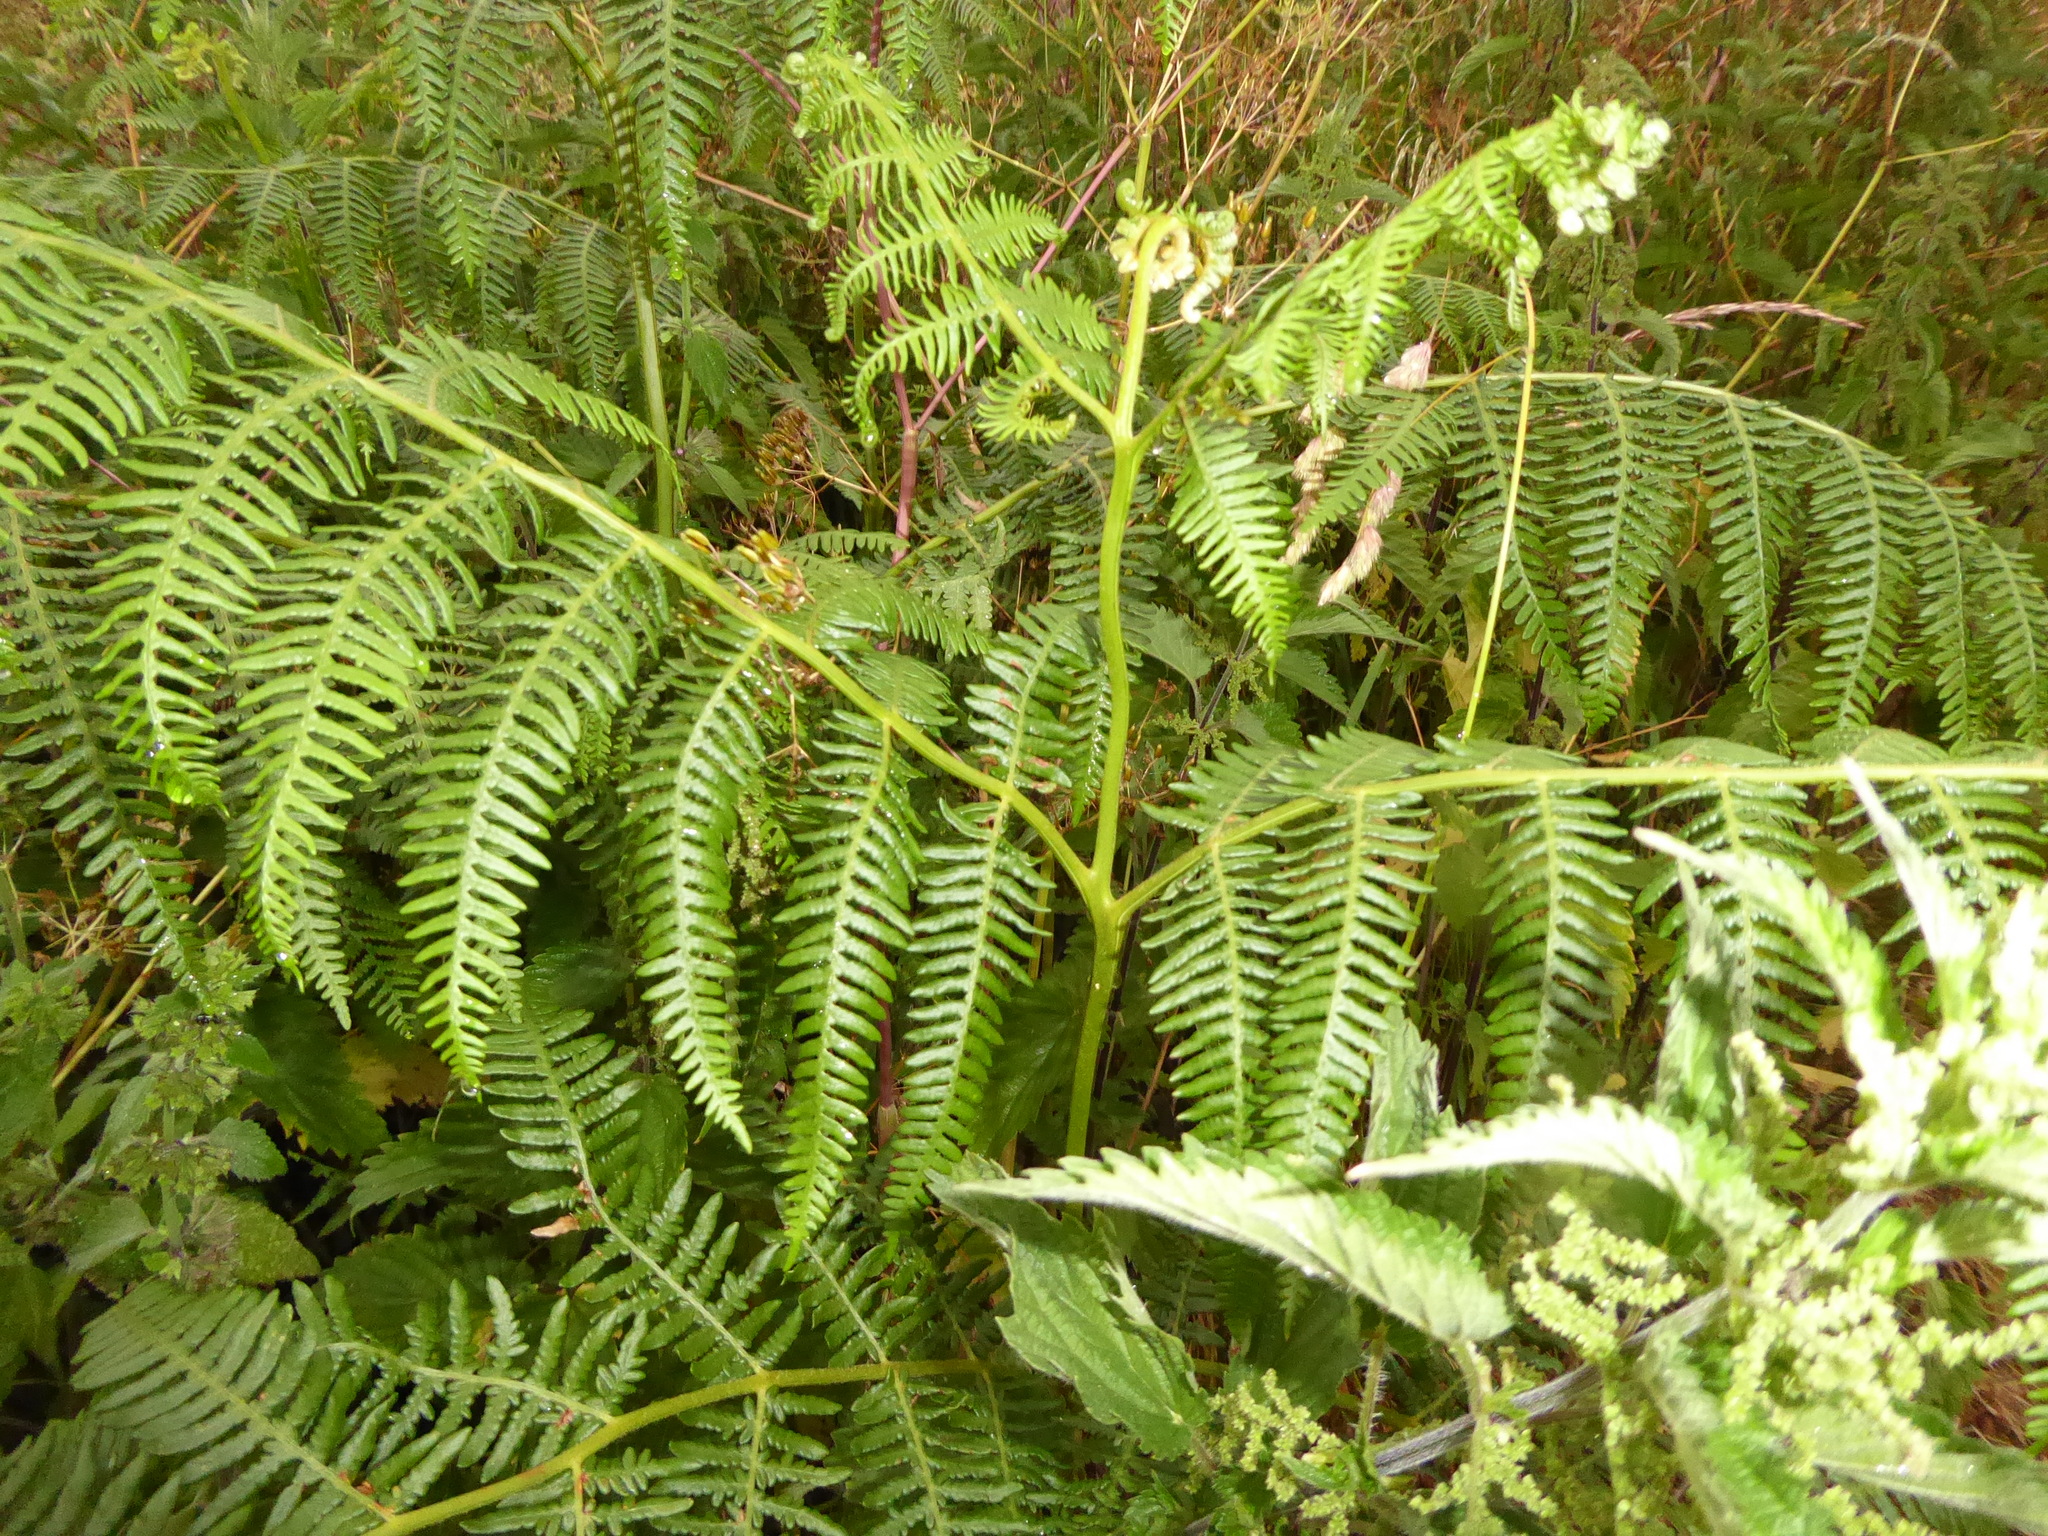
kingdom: Plantae
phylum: Tracheophyta
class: Polypodiopsida
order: Polypodiales
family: Dennstaedtiaceae
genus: Pteridium
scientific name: Pteridium aquilinum
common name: Bracken
